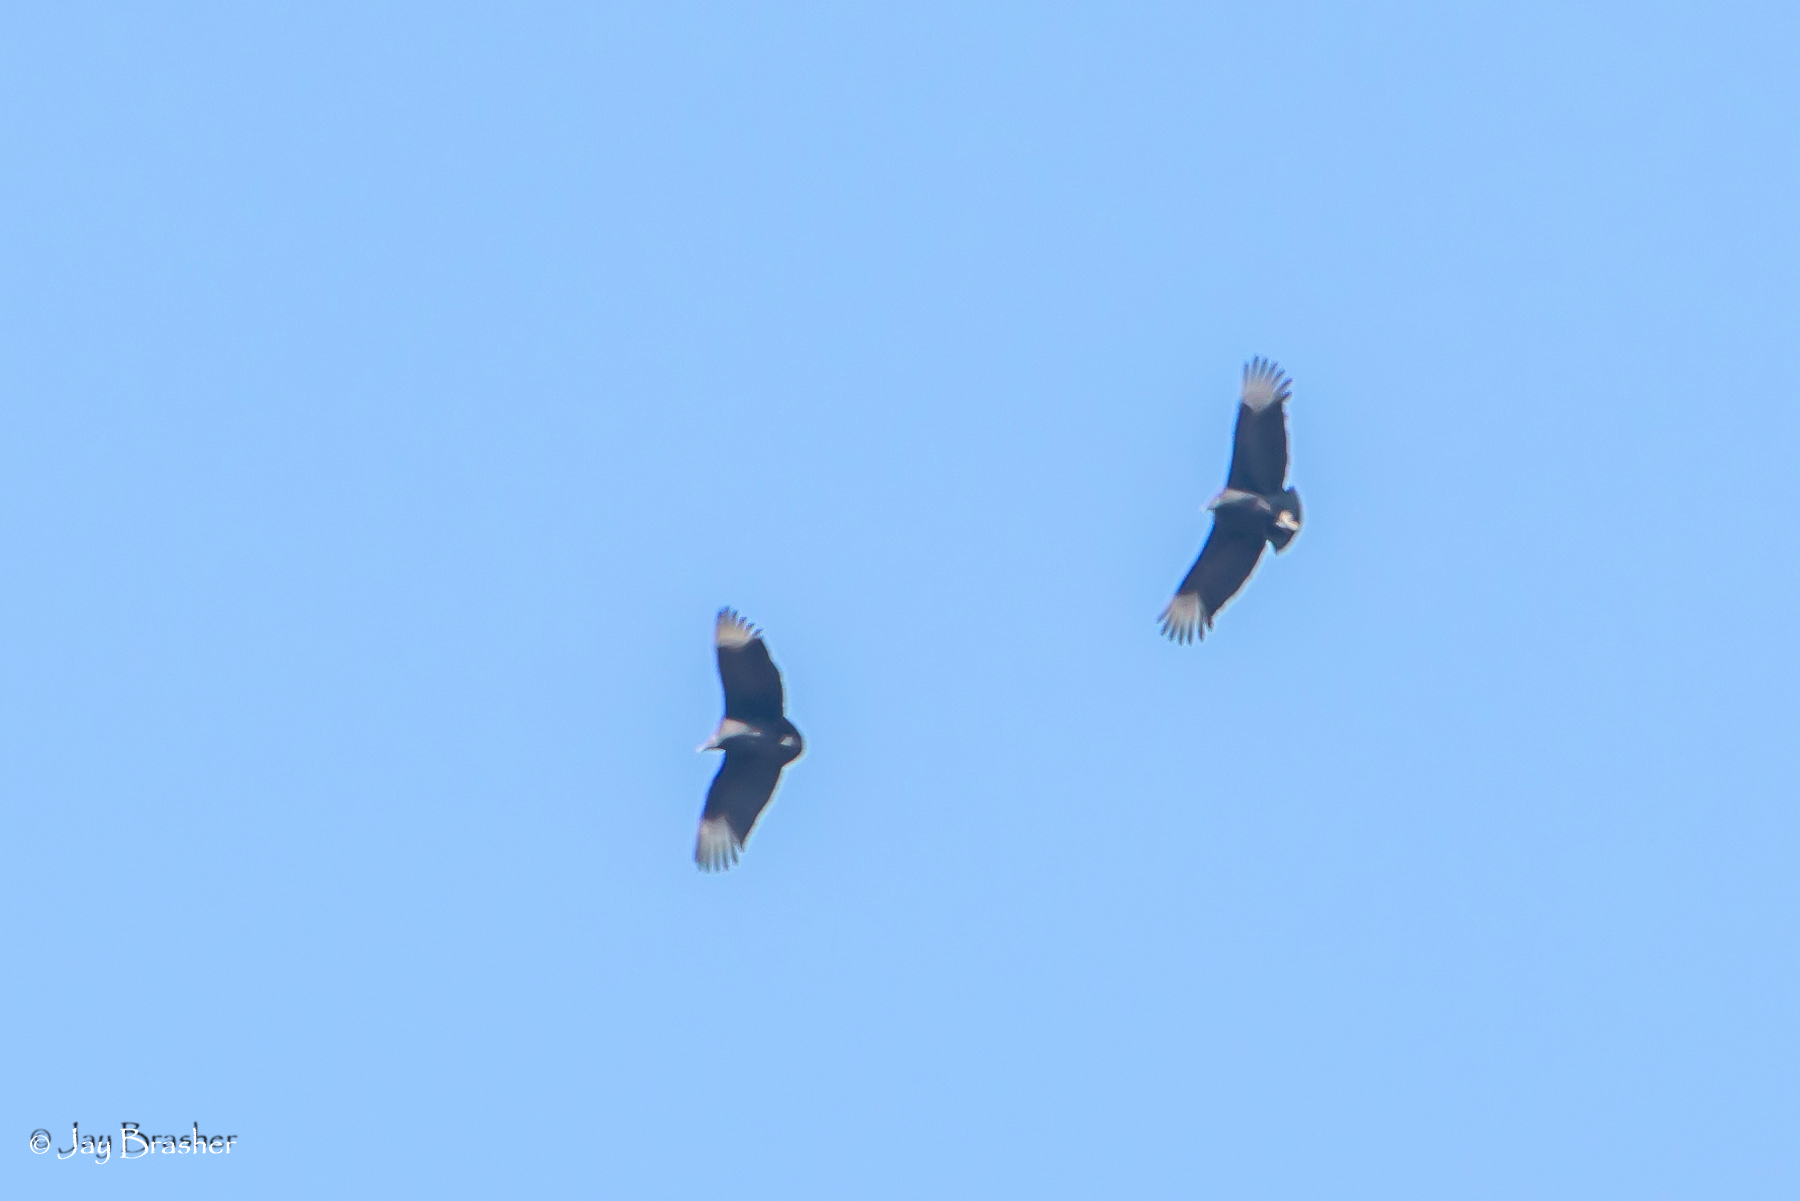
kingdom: Animalia
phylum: Chordata
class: Aves
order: Accipitriformes
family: Cathartidae
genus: Coragyps
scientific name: Coragyps atratus
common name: Black vulture
